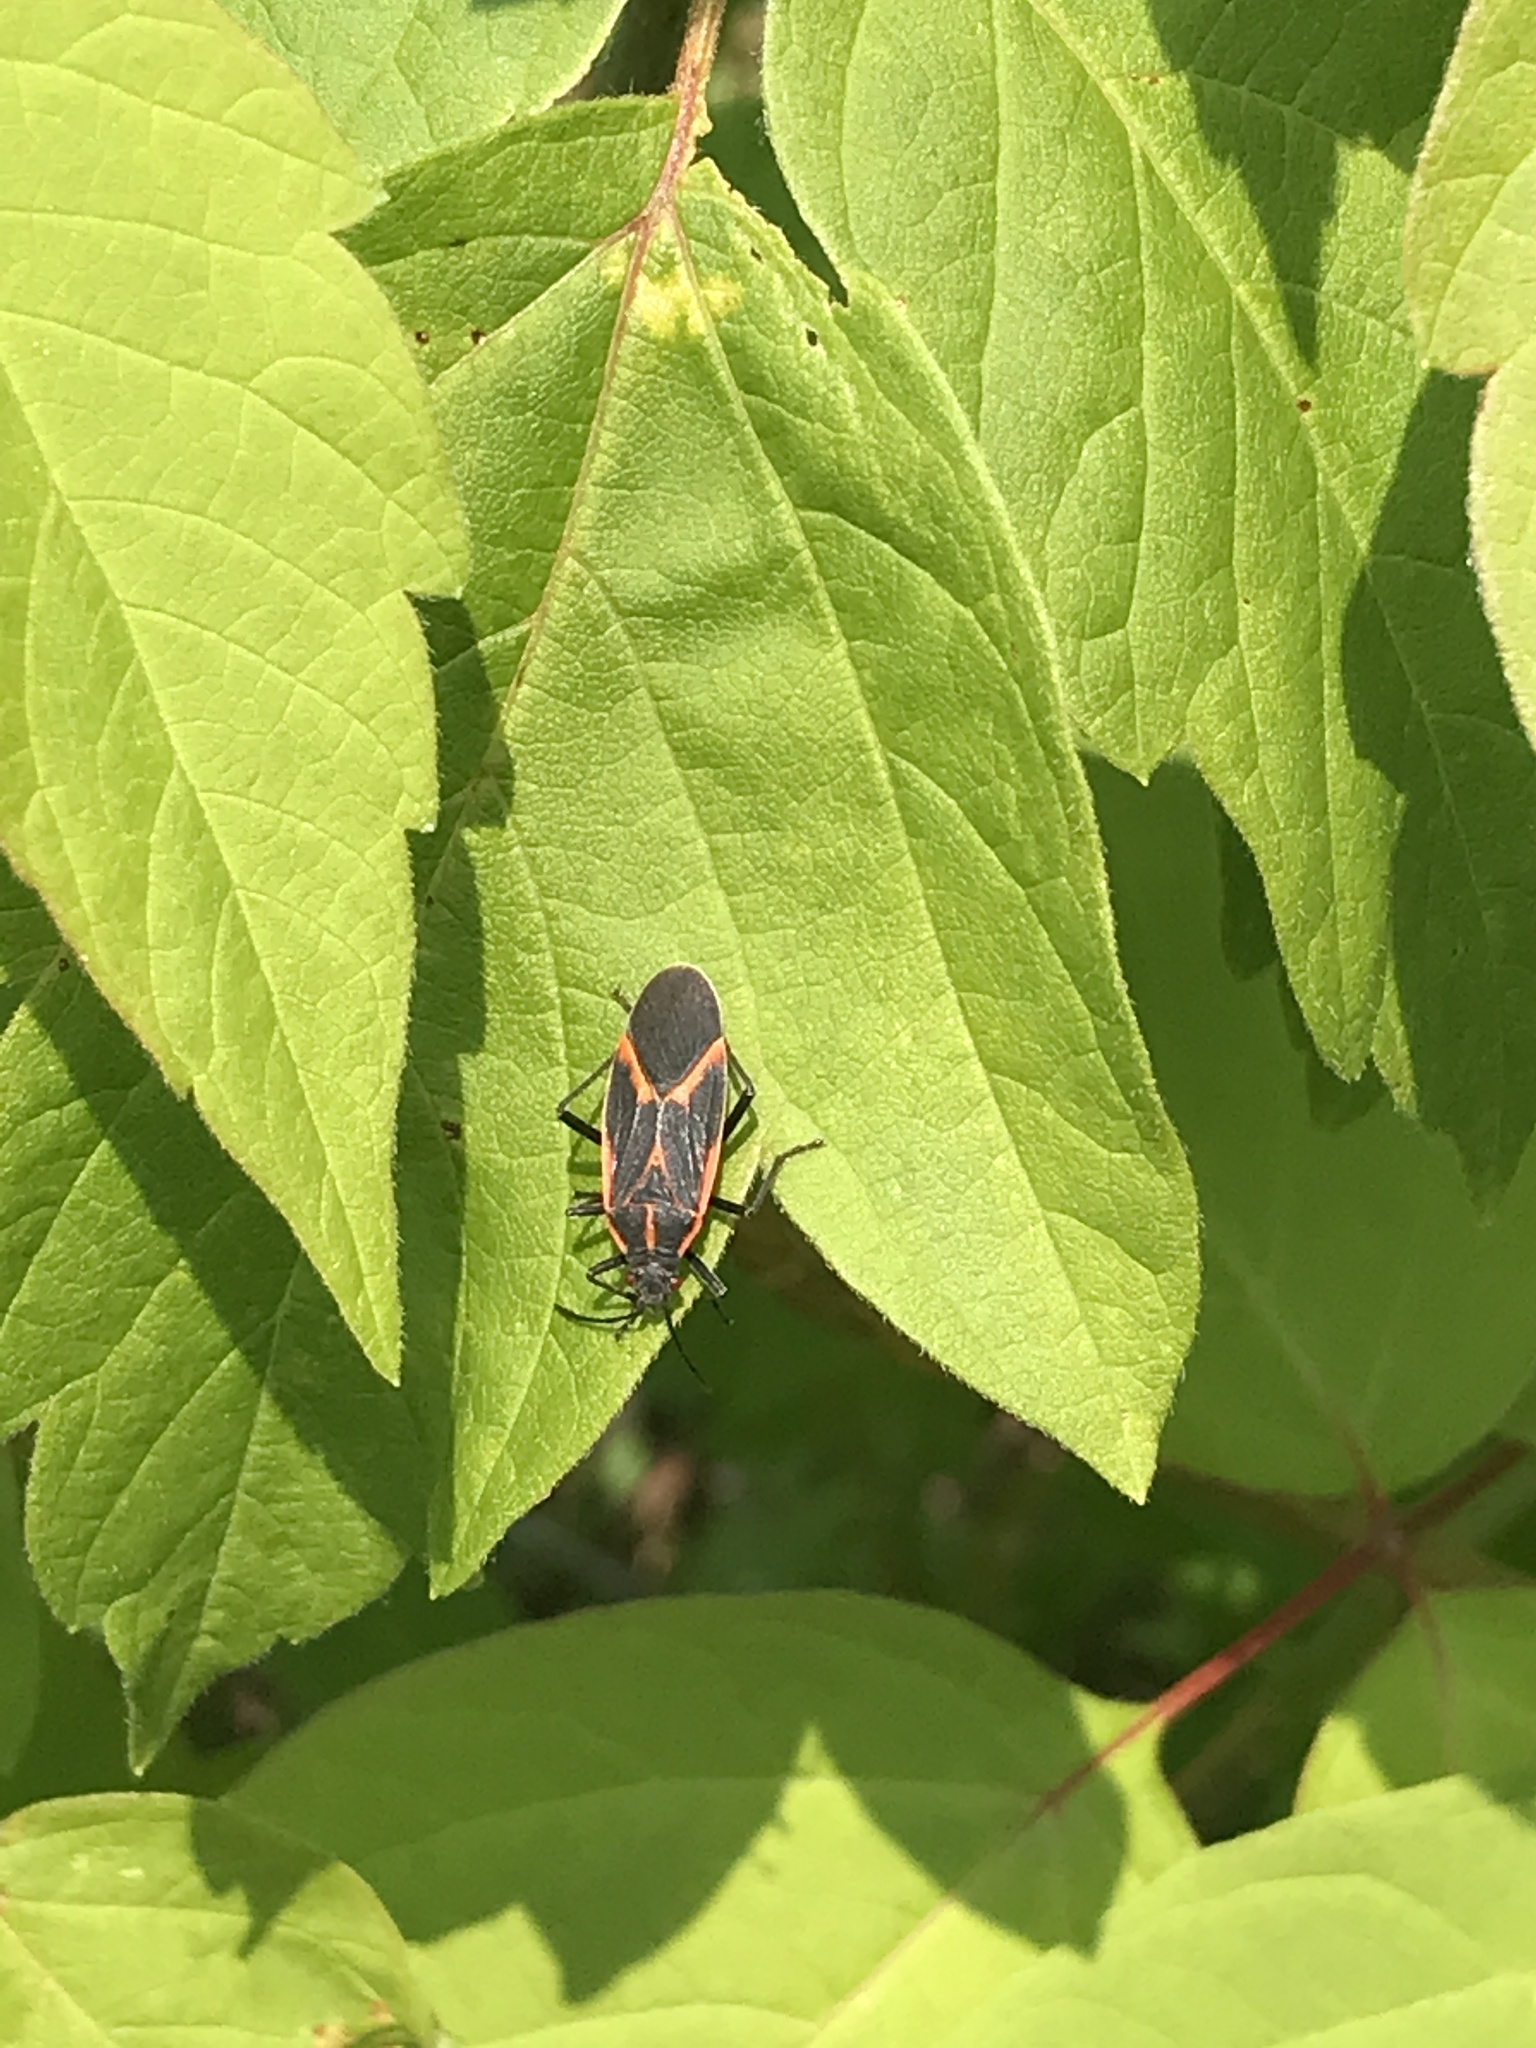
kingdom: Animalia
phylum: Arthropoda
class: Insecta
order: Hemiptera
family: Rhopalidae
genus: Boisea
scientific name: Boisea trivittata
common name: Boxelder bug
